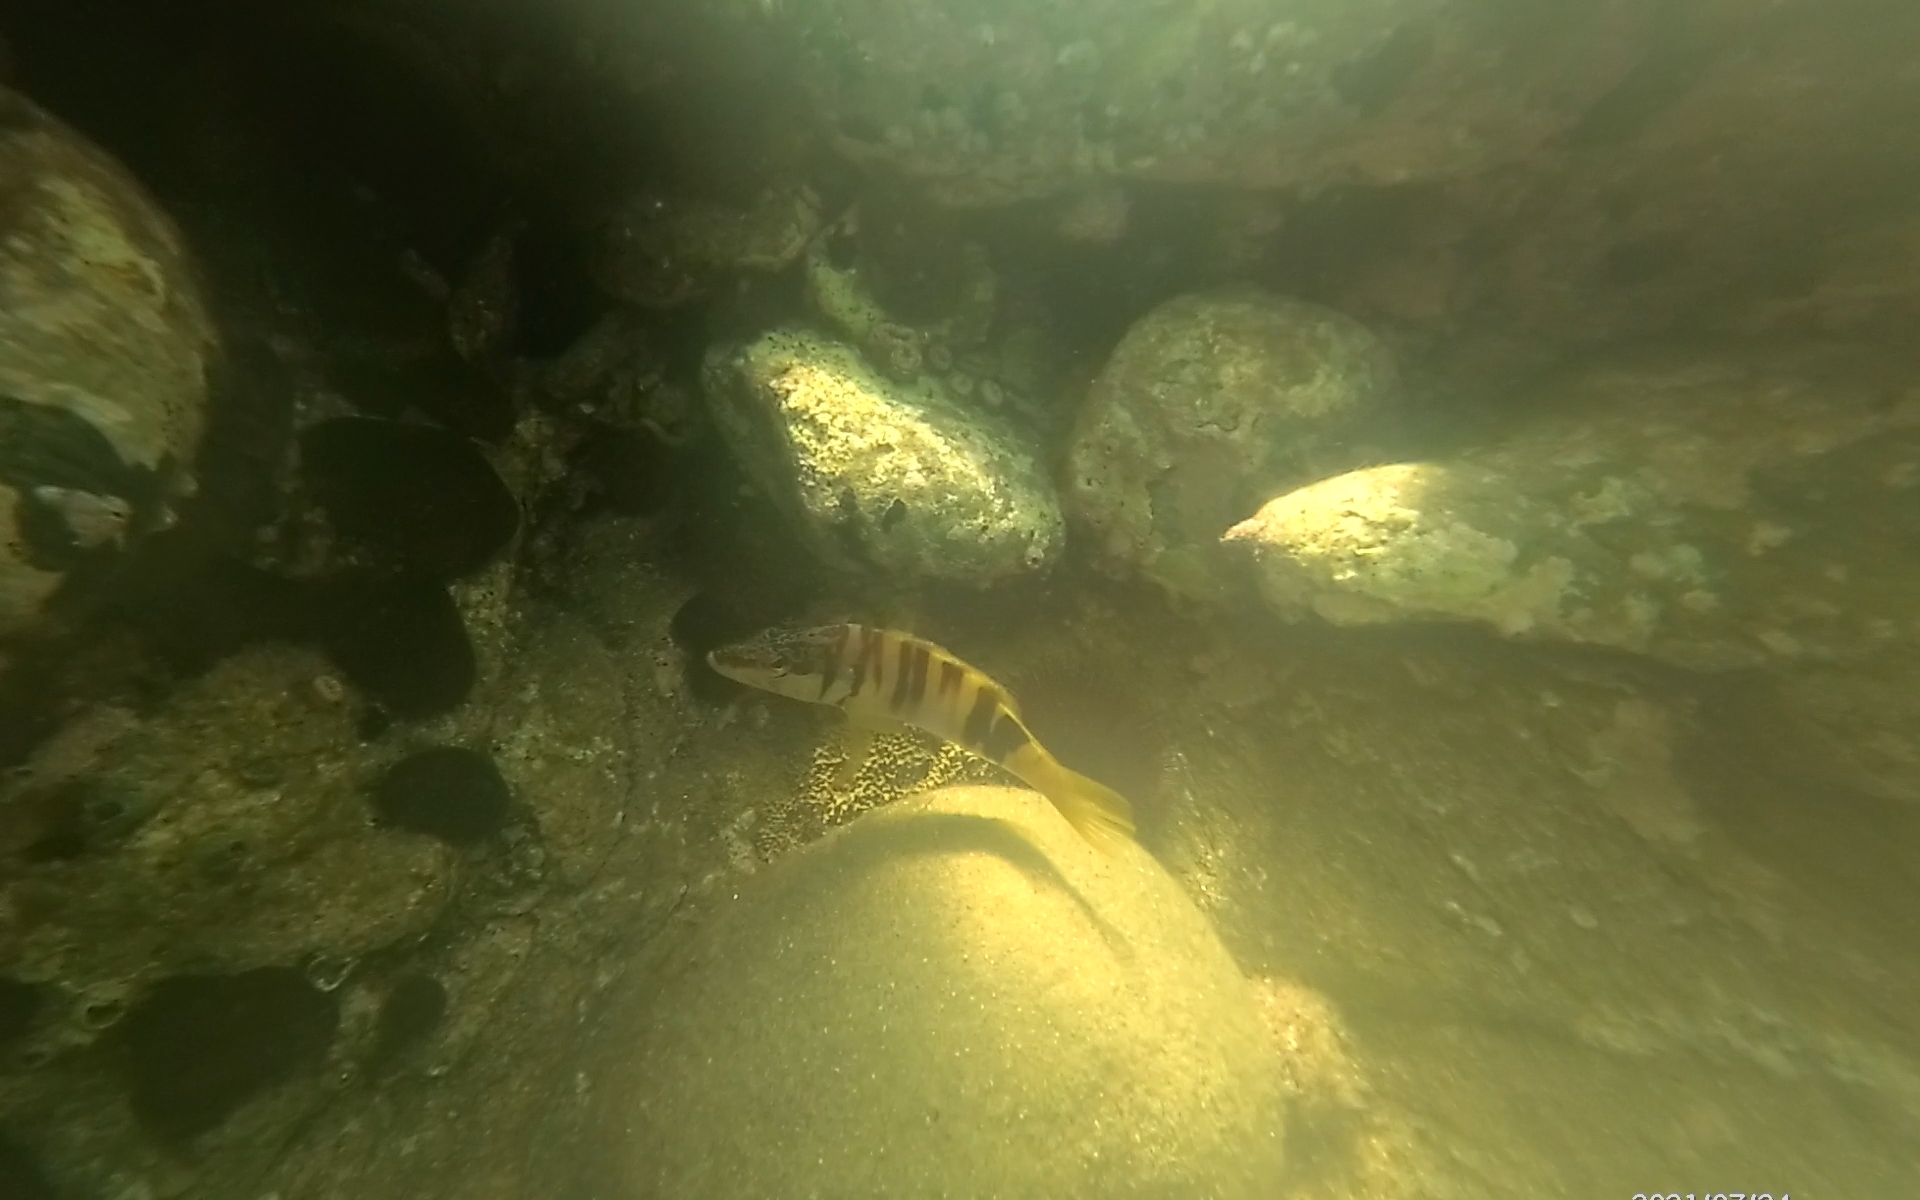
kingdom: Animalia
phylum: Chordata
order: Perciformes
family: Serranidae
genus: Serranus
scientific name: Serranus scriba
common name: Painted comber
